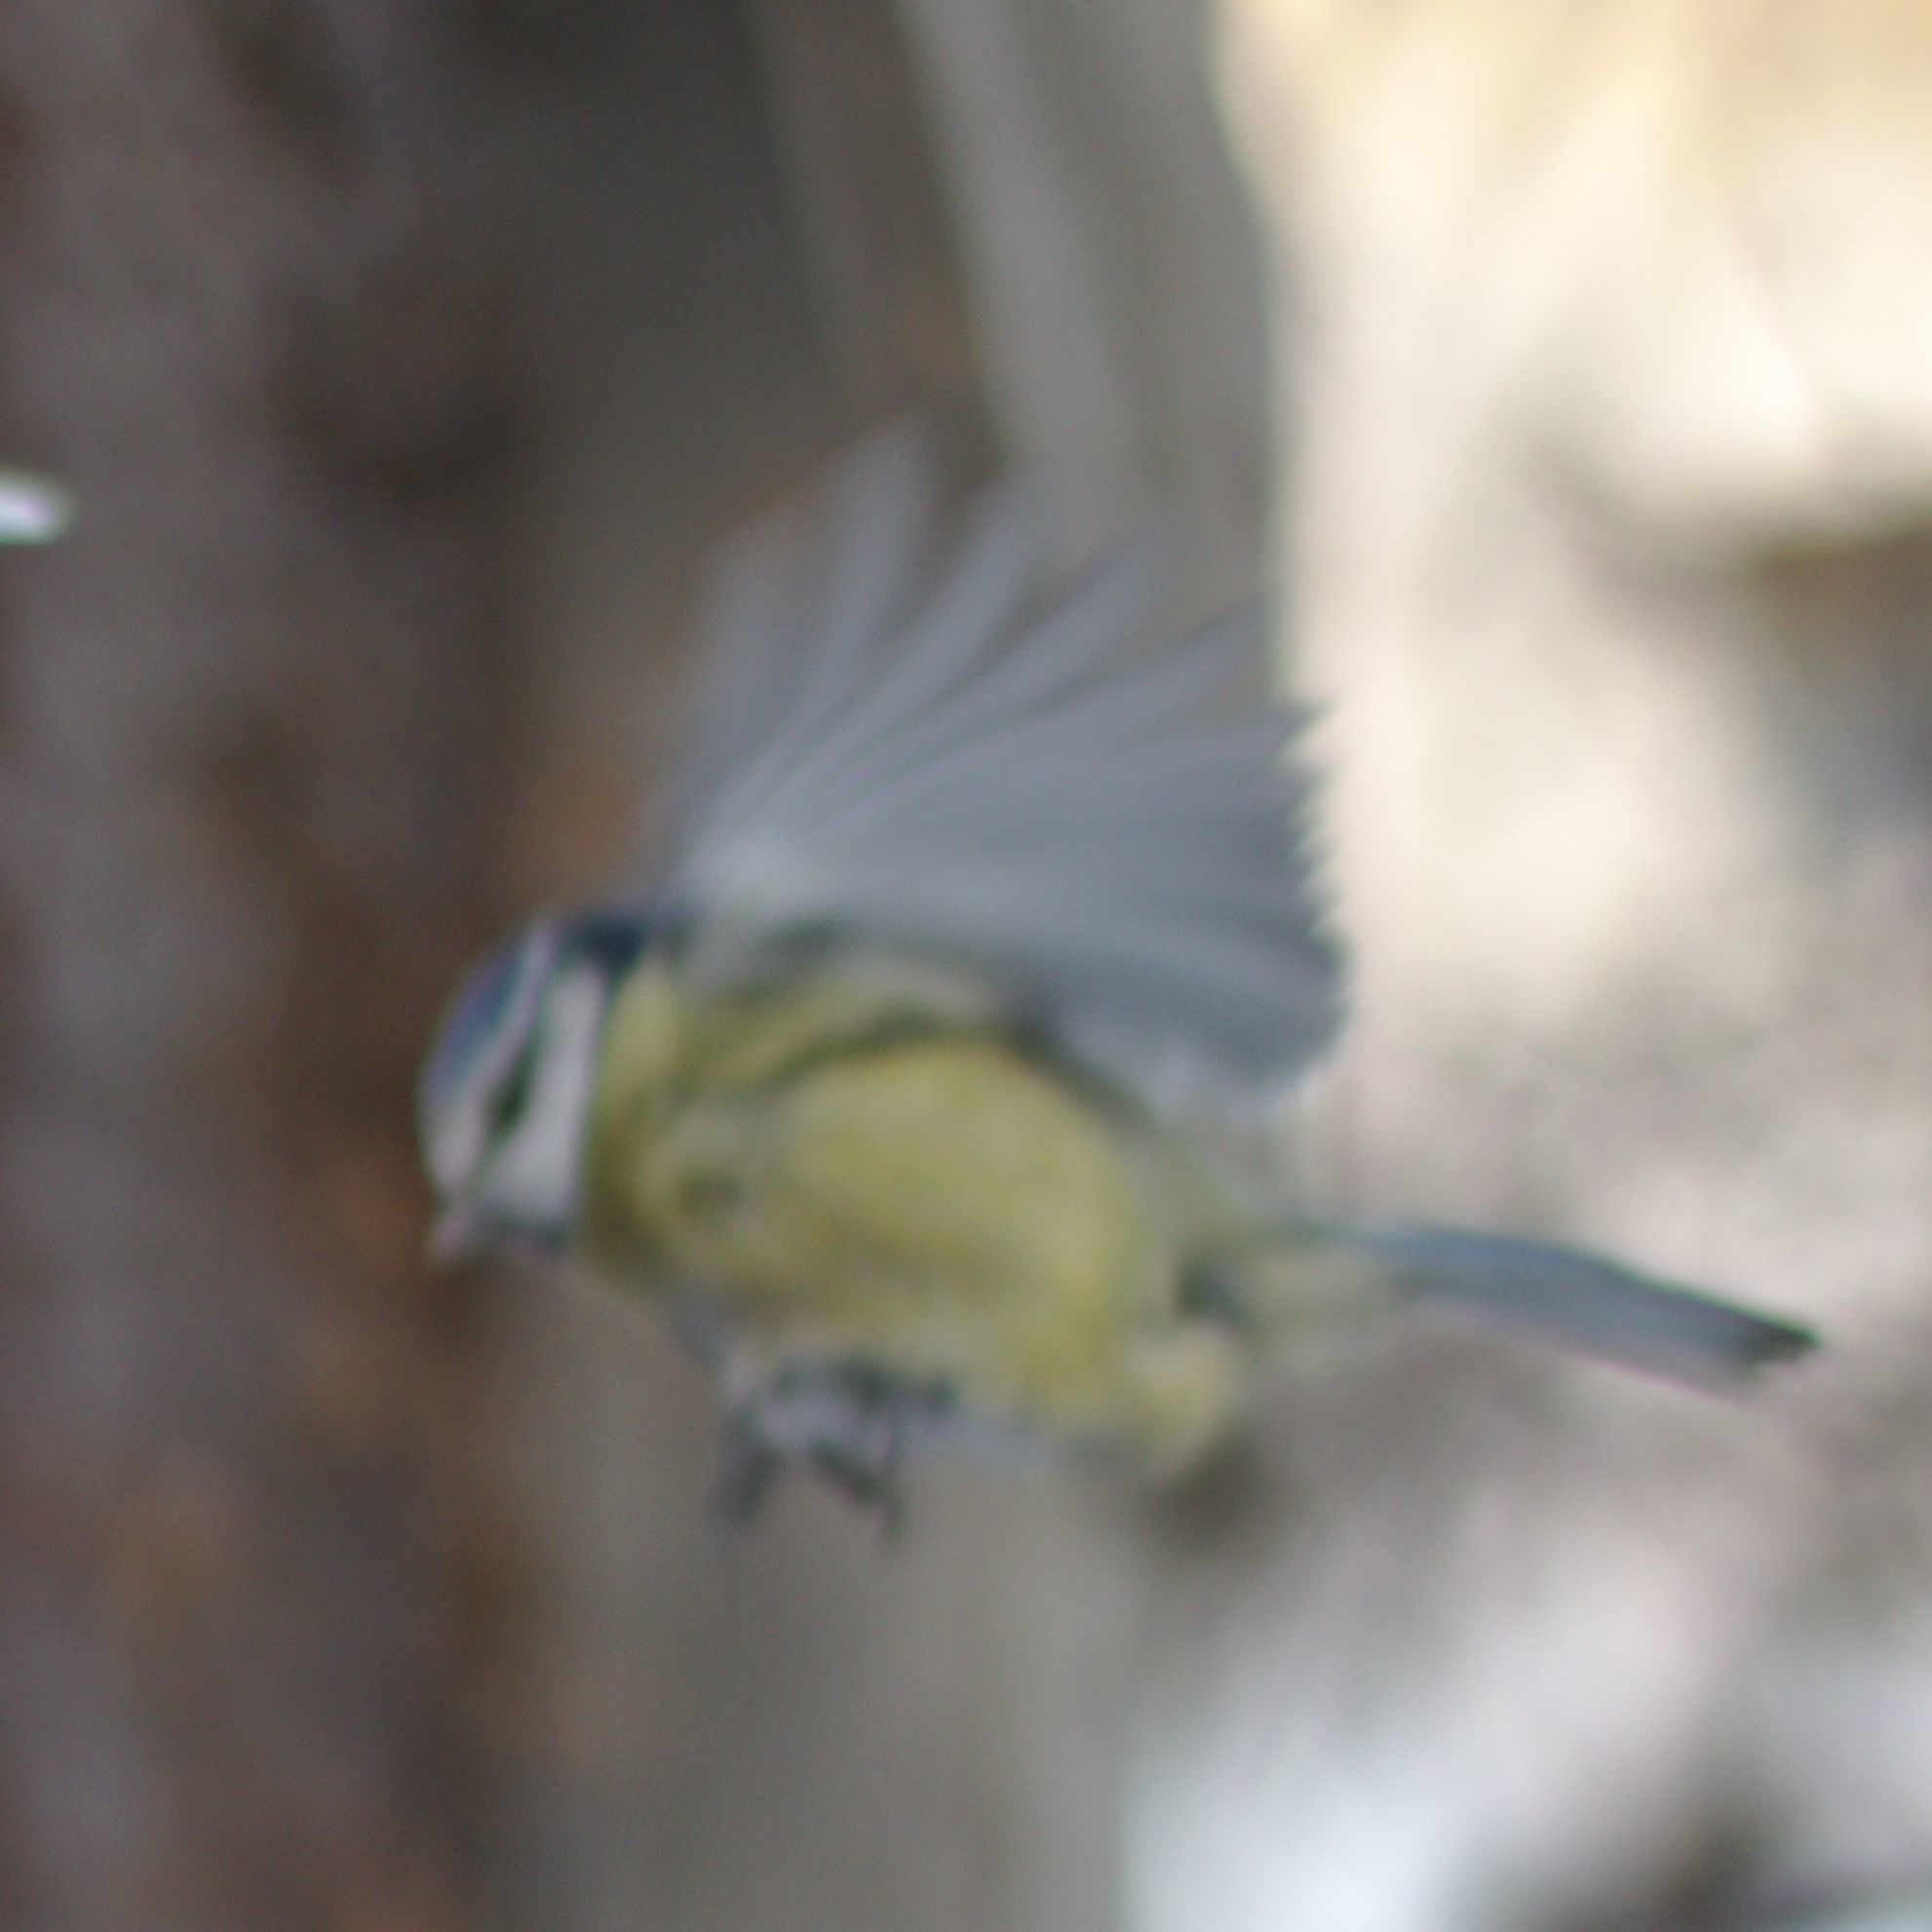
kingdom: Animalia
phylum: Chordata
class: Aves
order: Passeriformes
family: Paridae
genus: Cyanistes
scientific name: Cyanistes caeruleus
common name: Eurasian blue tit
